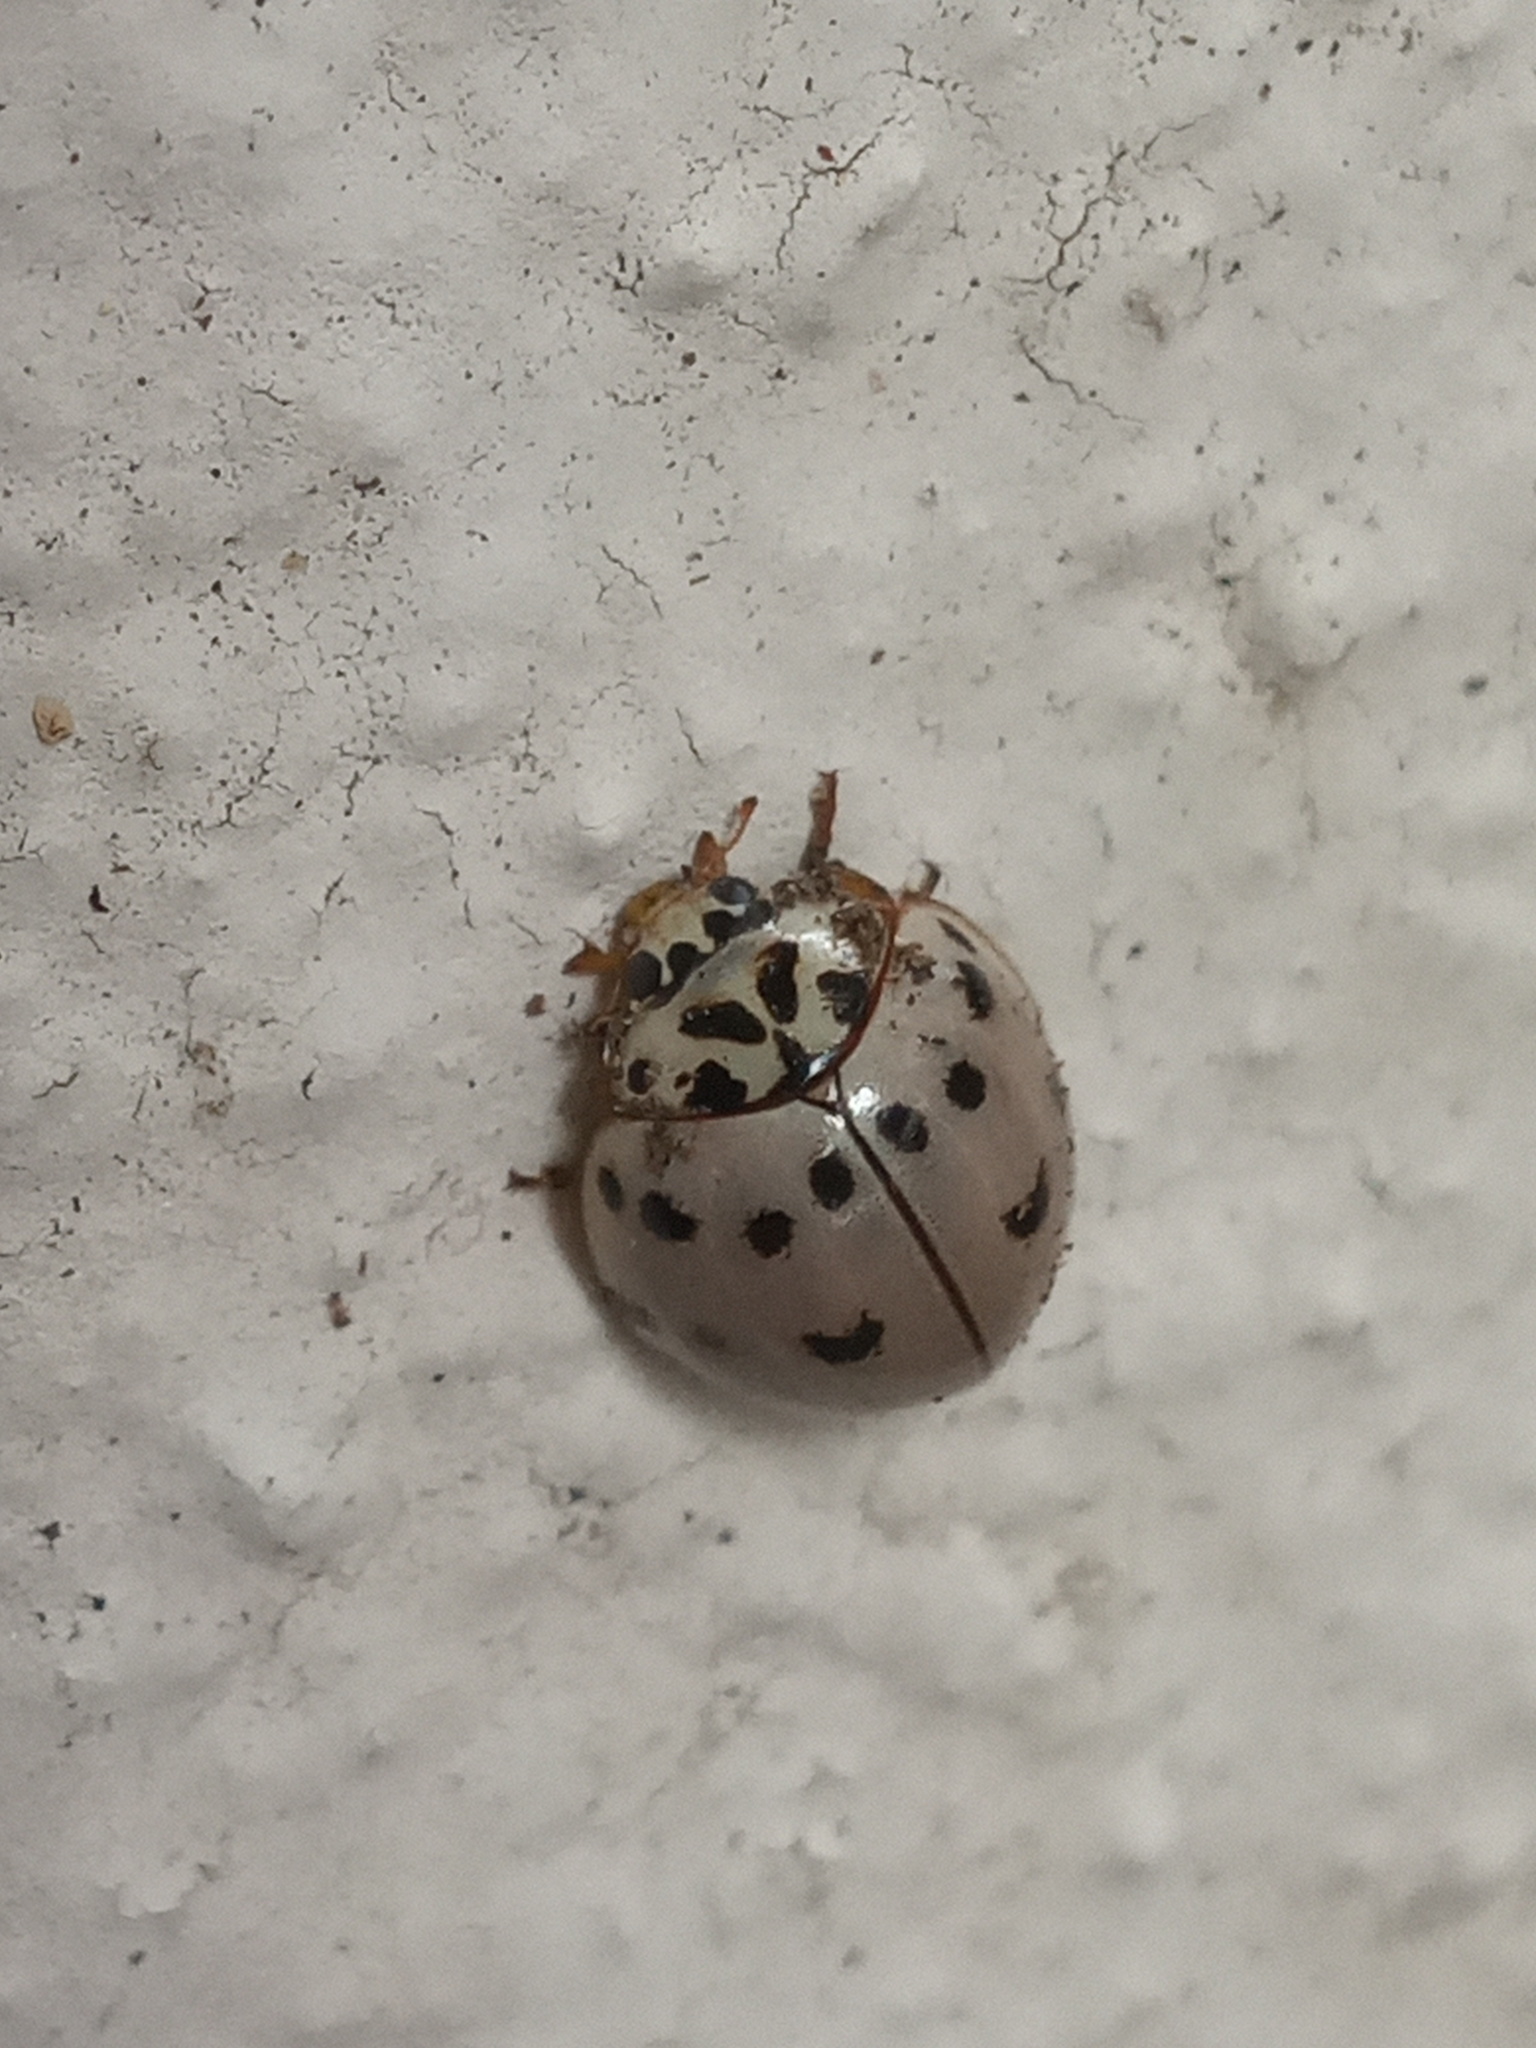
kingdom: Animalia
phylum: Arthropoda
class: Insecta
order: Coleoptera
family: Coccinellidae
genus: Olla
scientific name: Olla v-nigrum
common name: Ashy gray lady beetle
